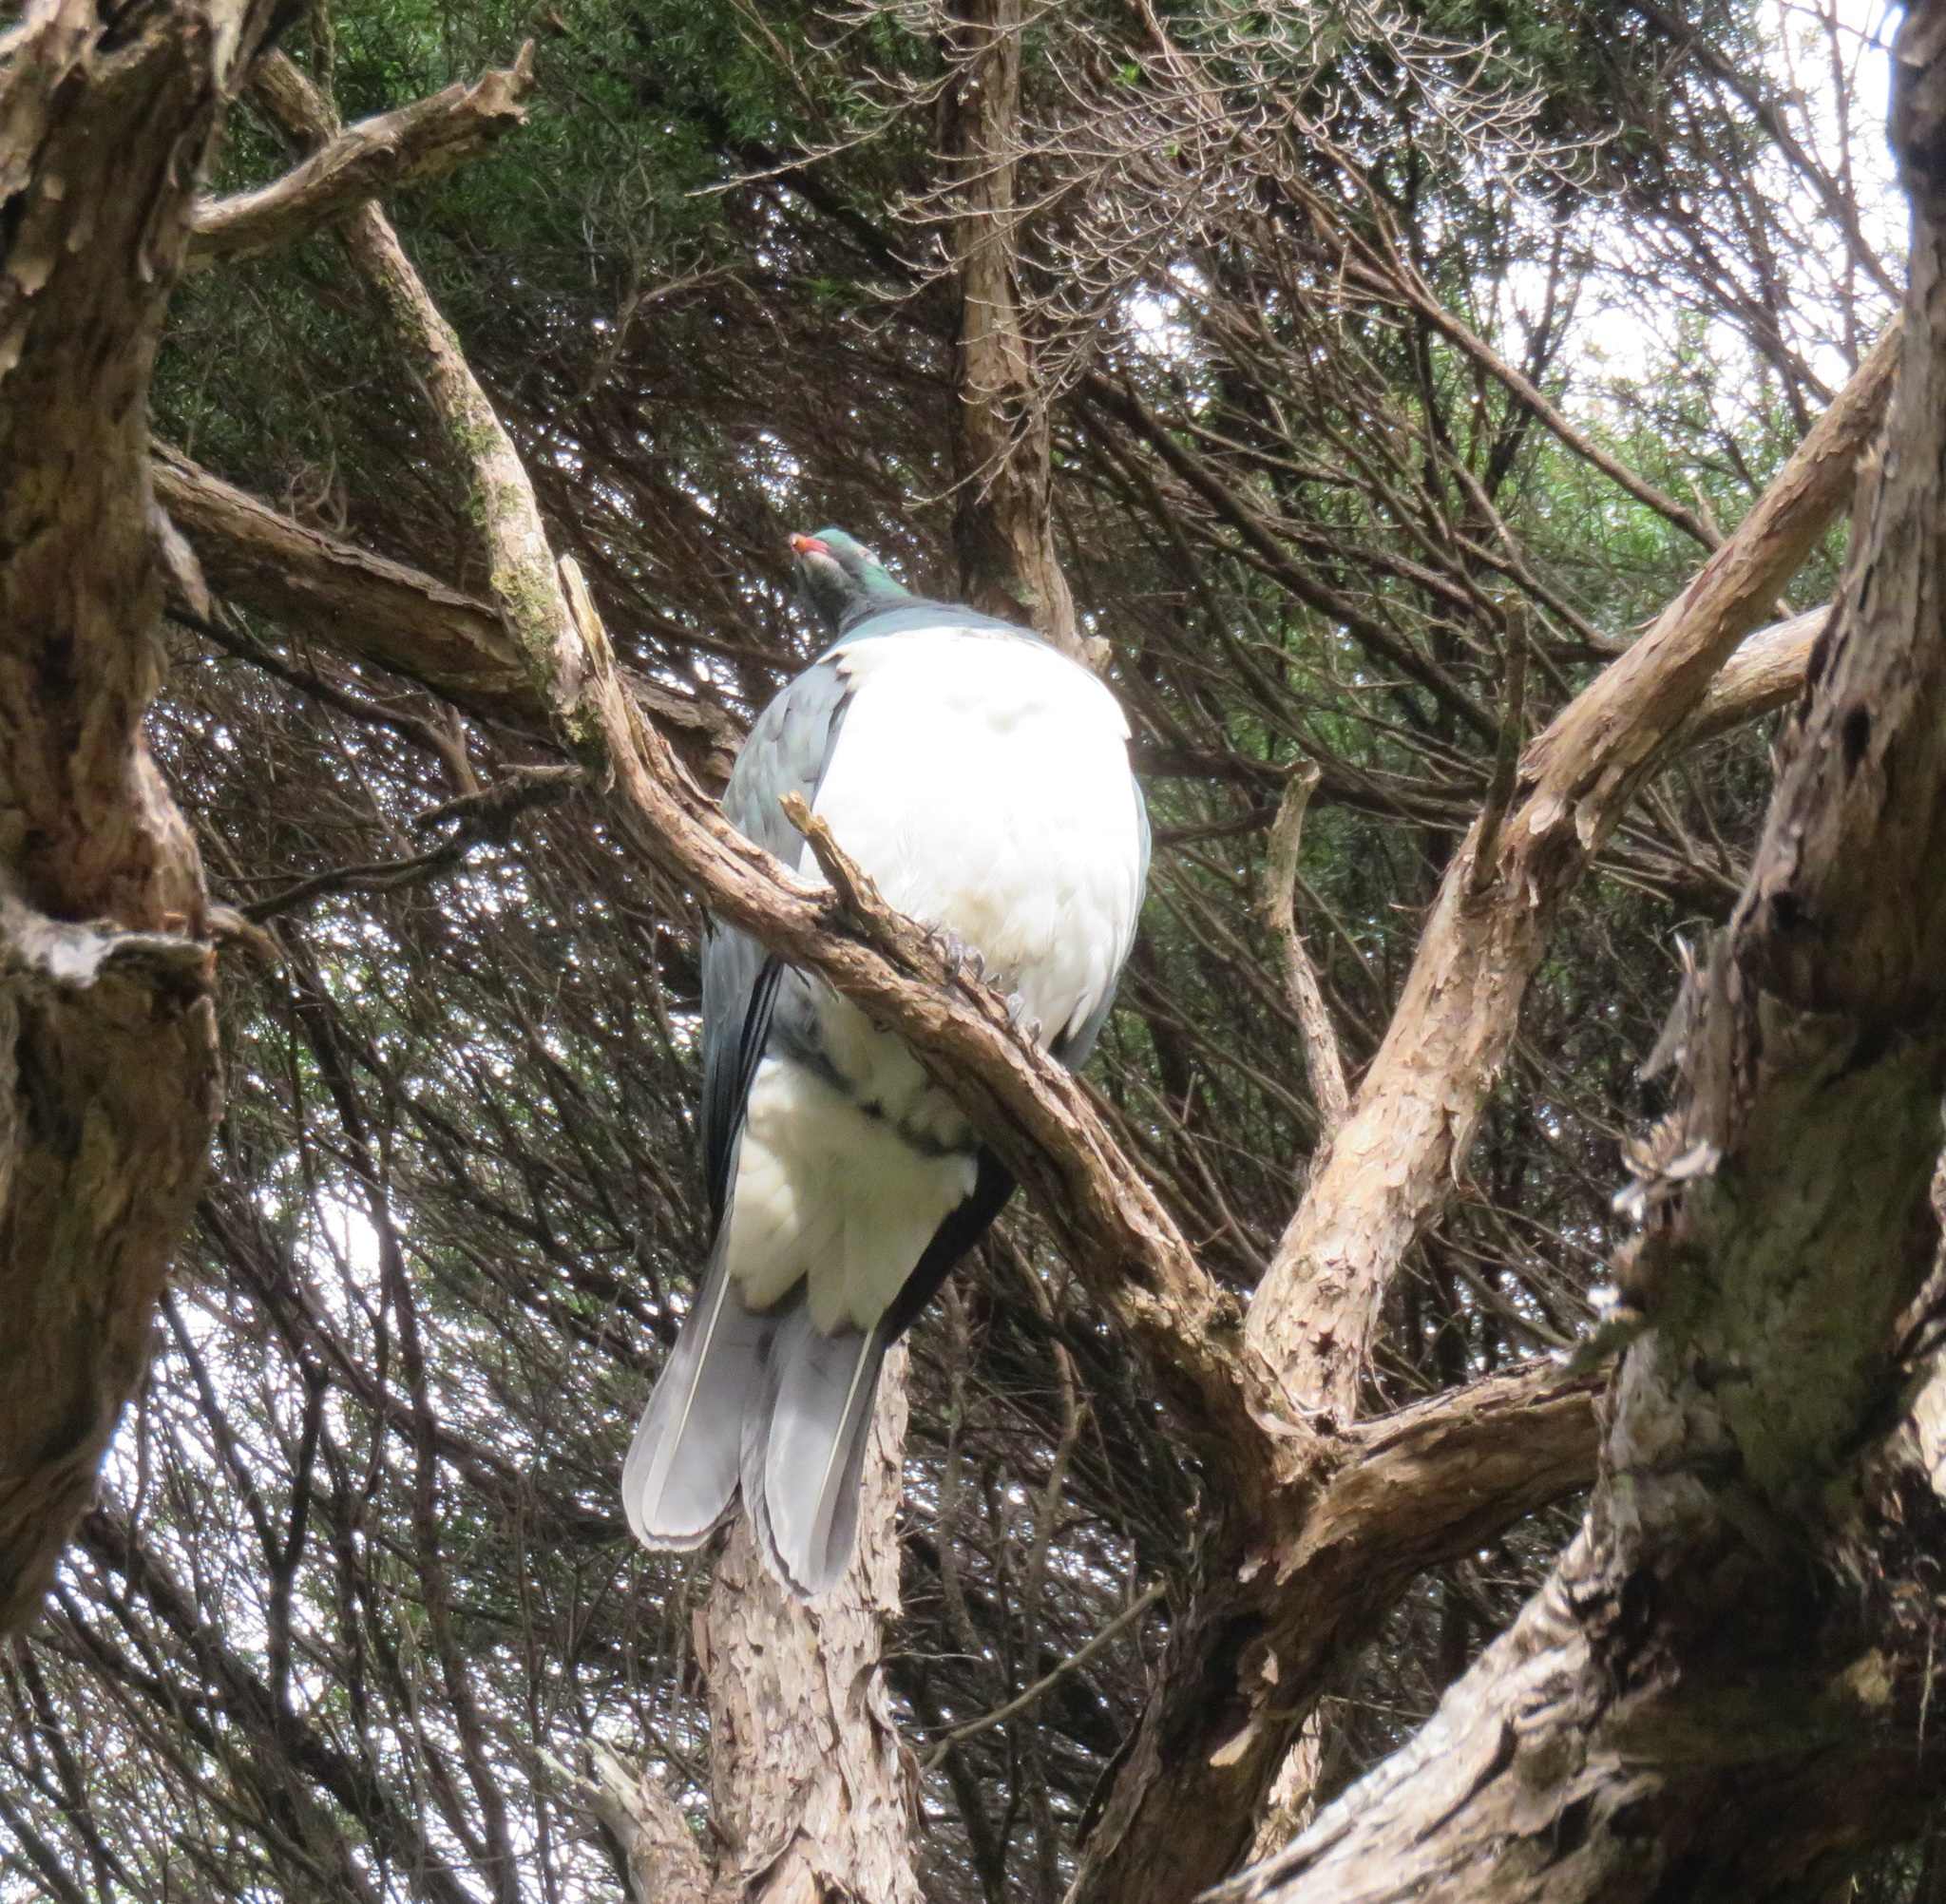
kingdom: Animalia
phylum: Chordata
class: Aves
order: Columbiformes
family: Columbidae
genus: Hemiphaga
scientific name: Hemiphaga novaeseelandiae
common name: New zealand pigeon
